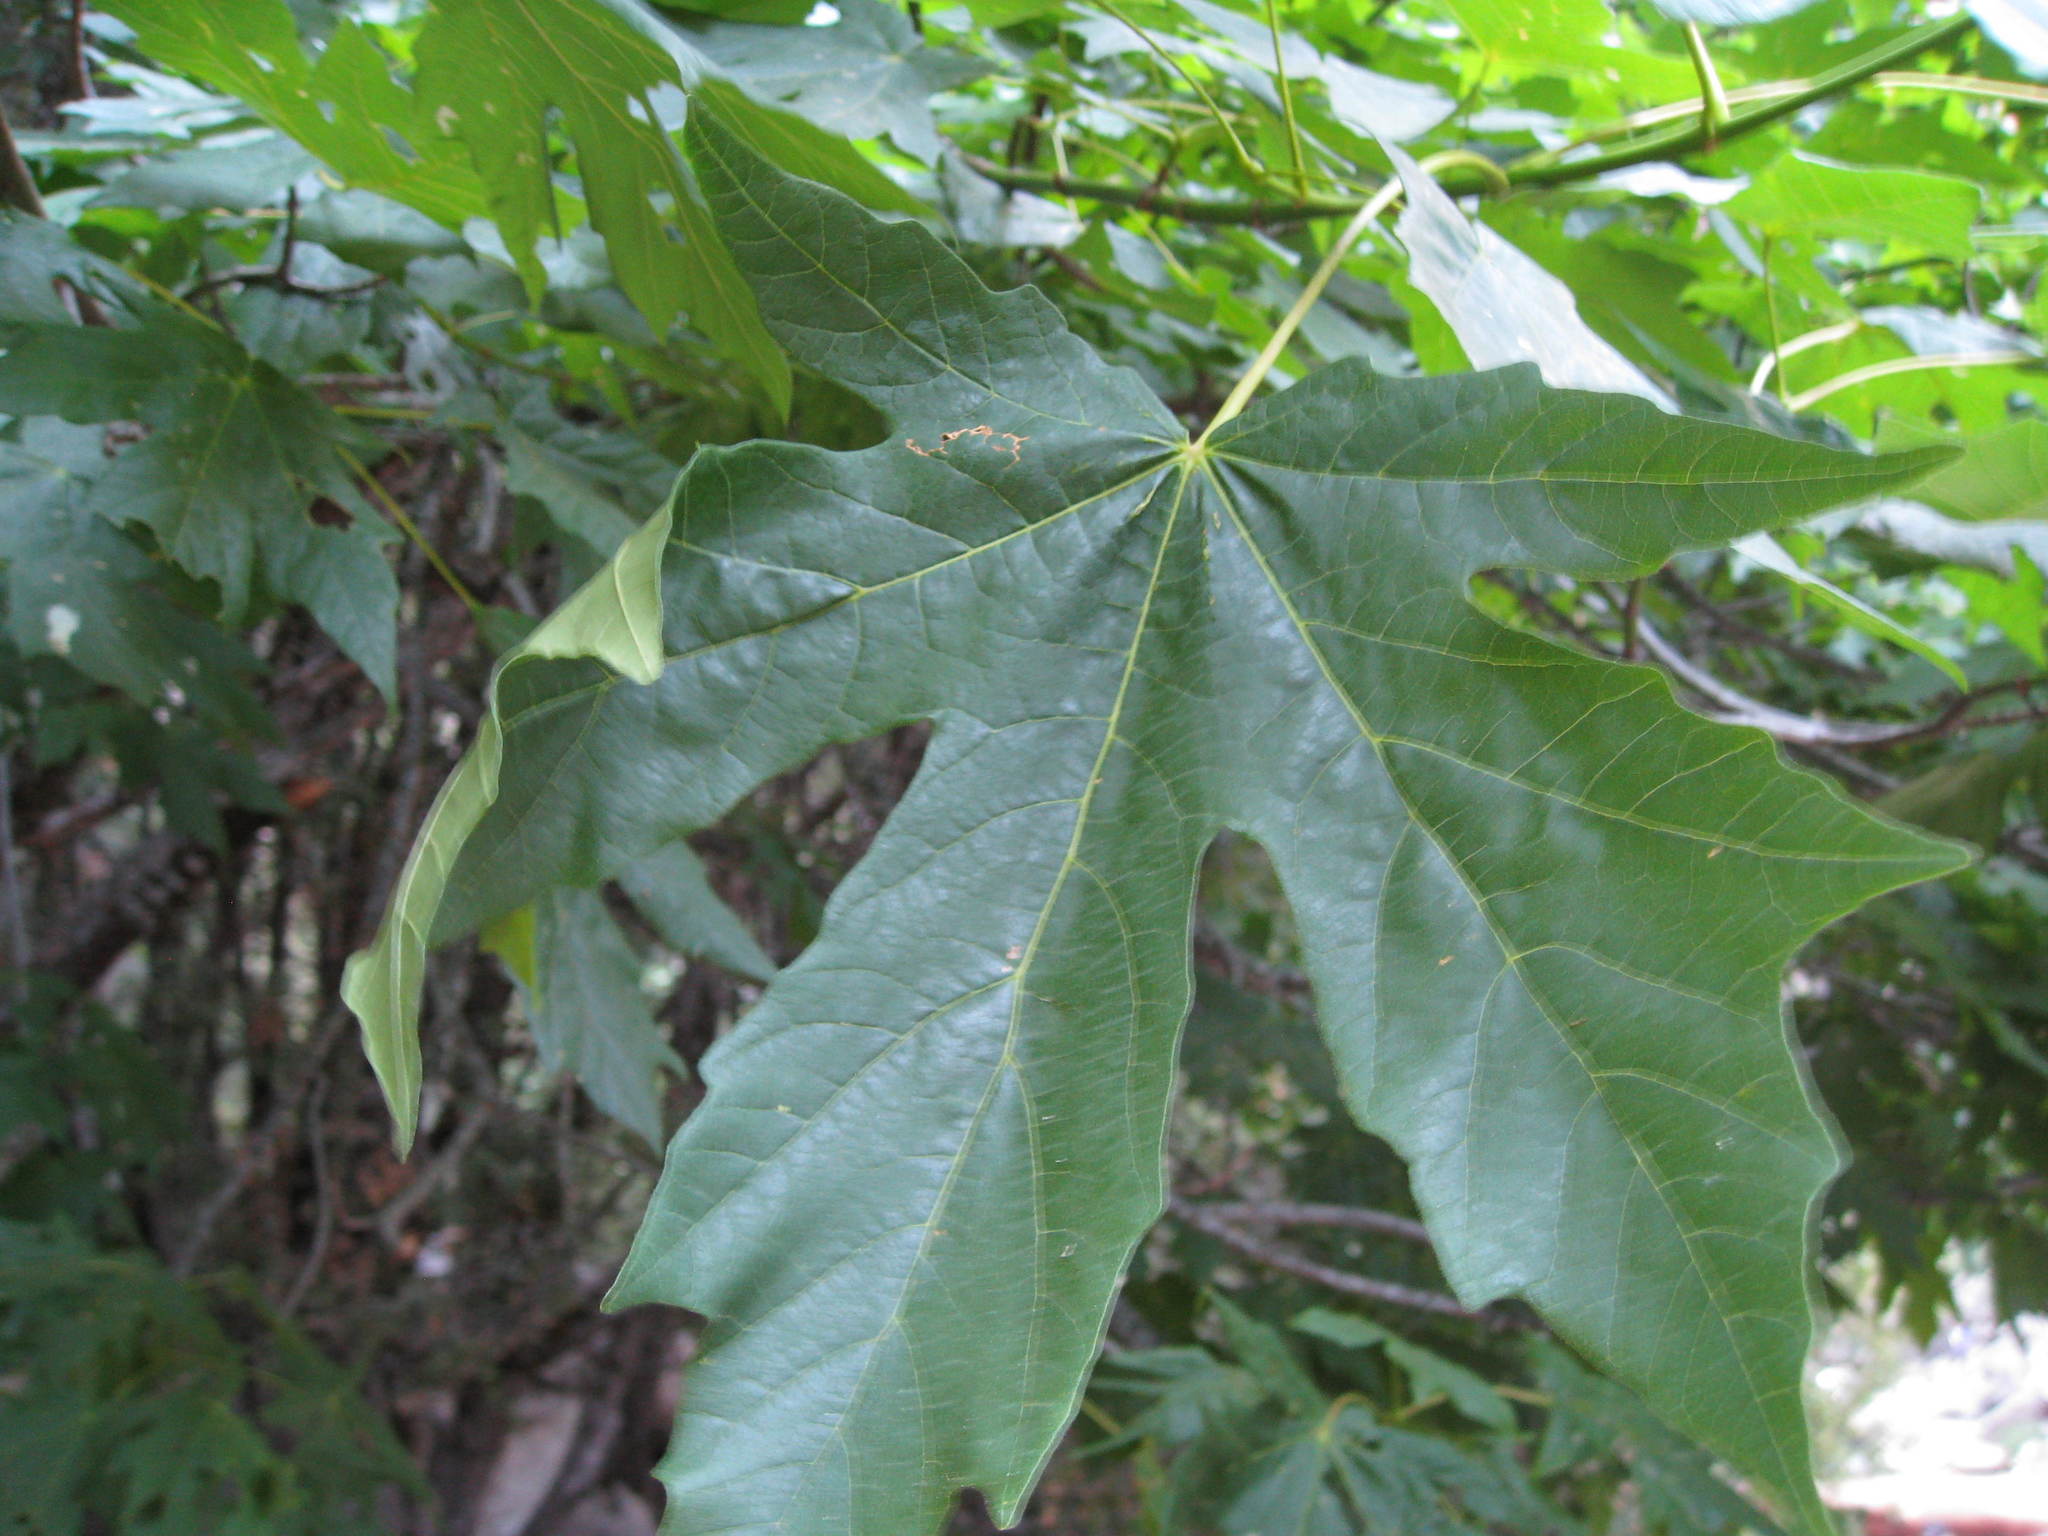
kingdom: Plantae
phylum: Tracheophyta
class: Magnoliopsida
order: Sapindales
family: Sapindaceae
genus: Acer
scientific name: Acer macrophyllum
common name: Oregon maple
